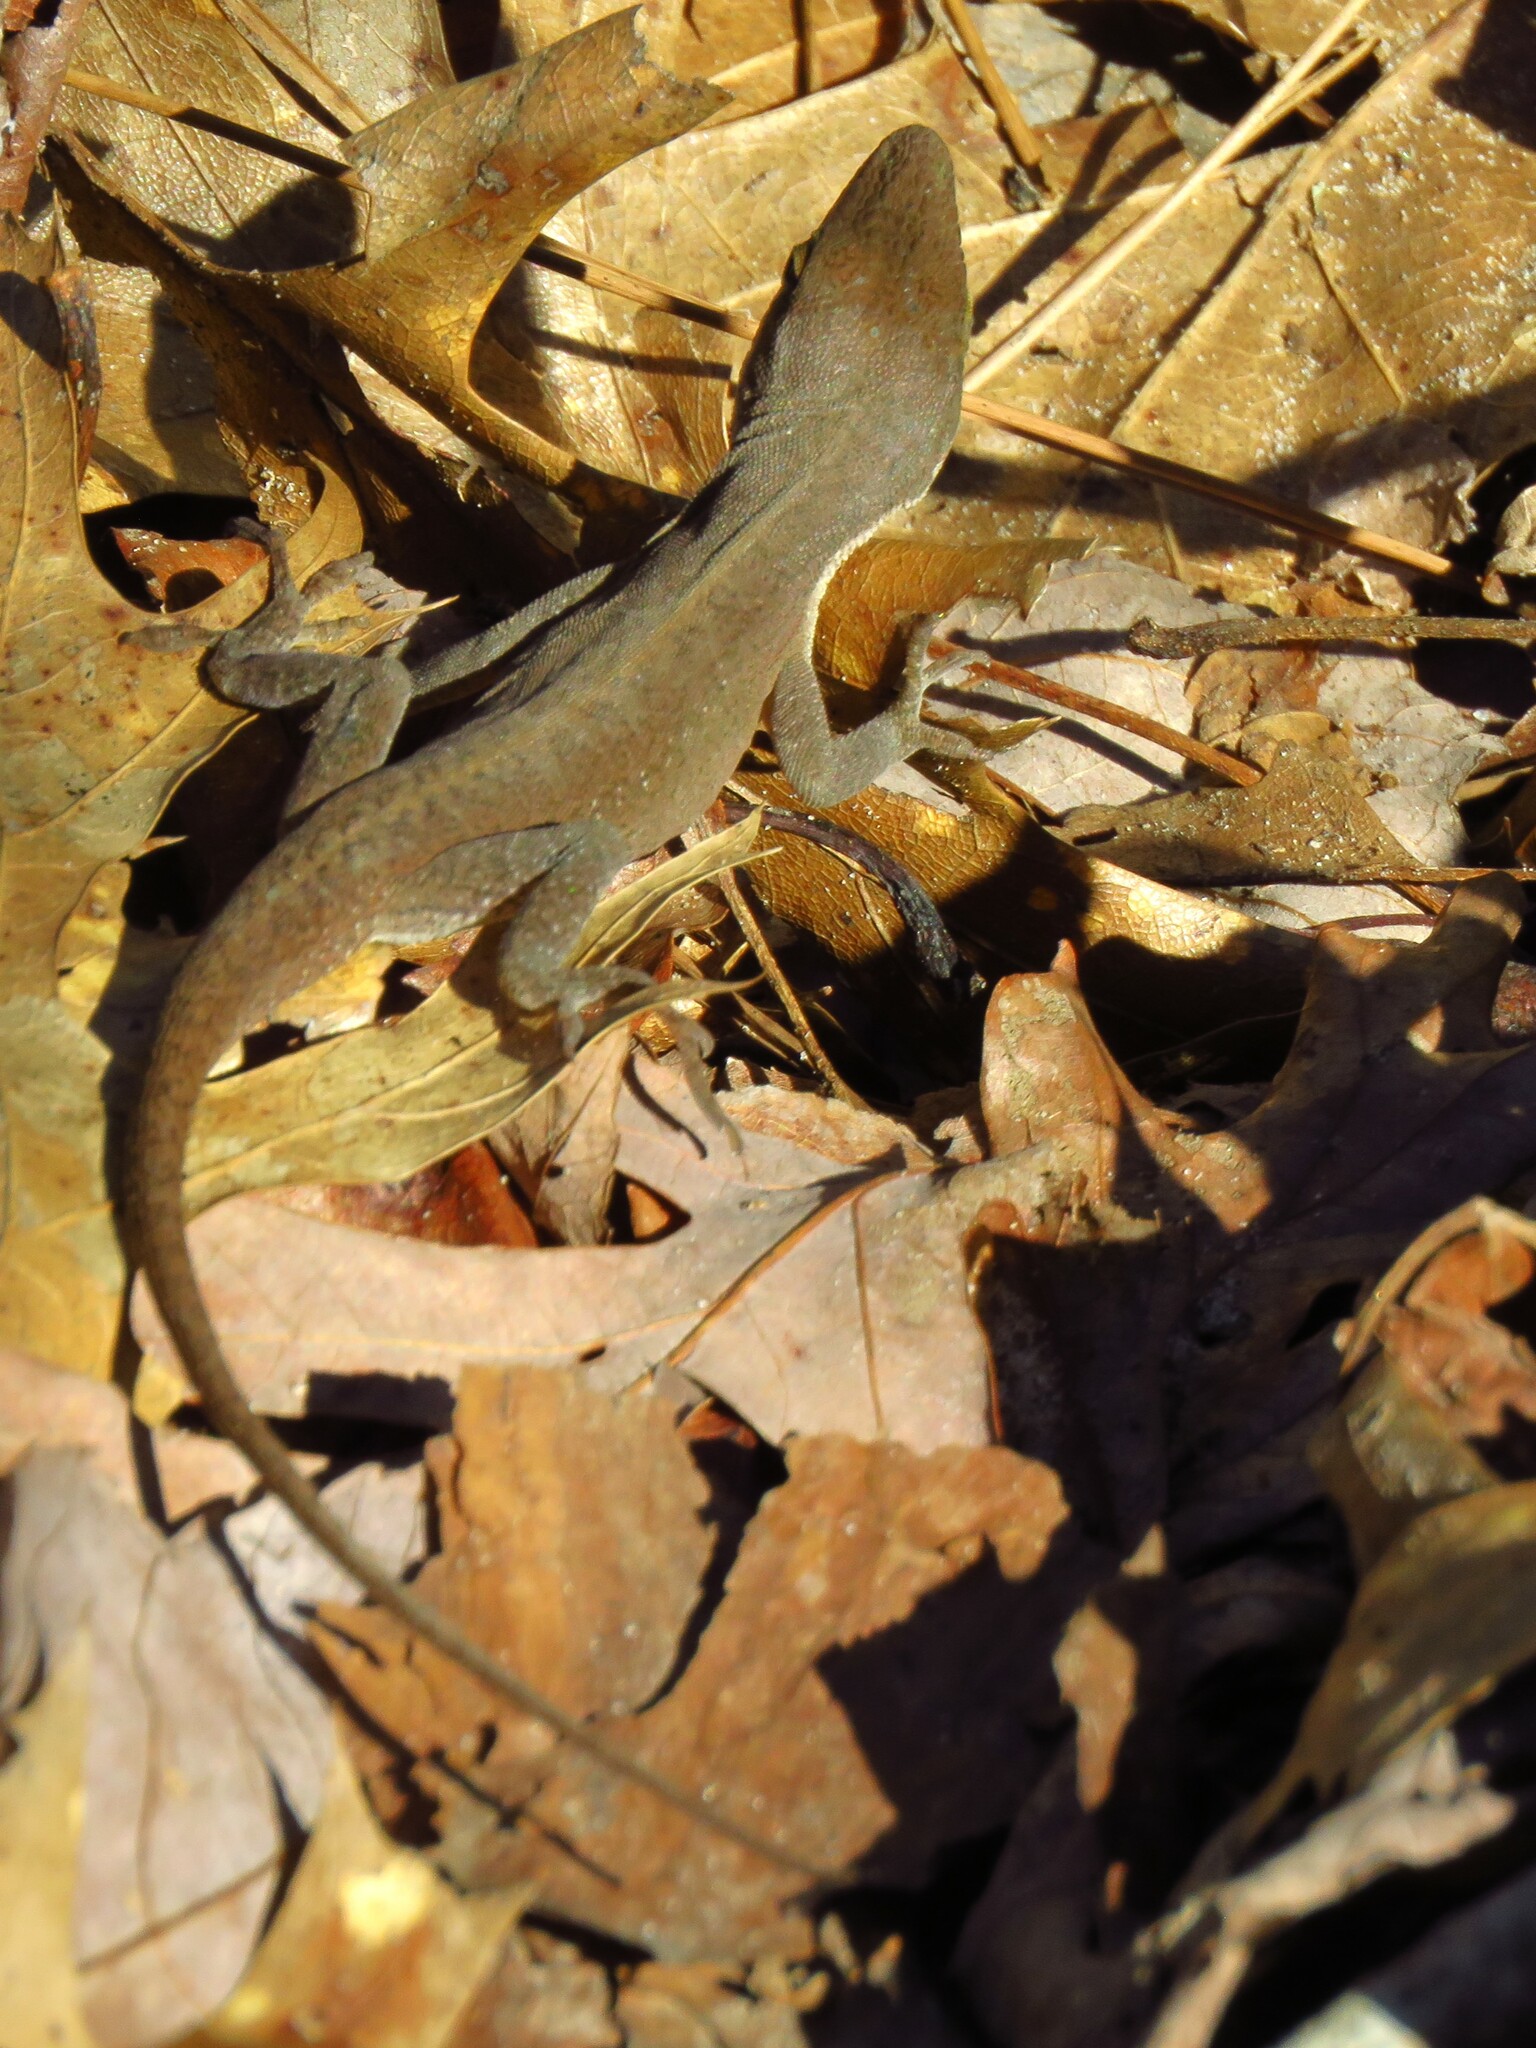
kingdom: Animalia
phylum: Chordata
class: Squamata
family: Dactyloidae
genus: Anolis
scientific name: Anolis carolinensis
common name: Green anole
